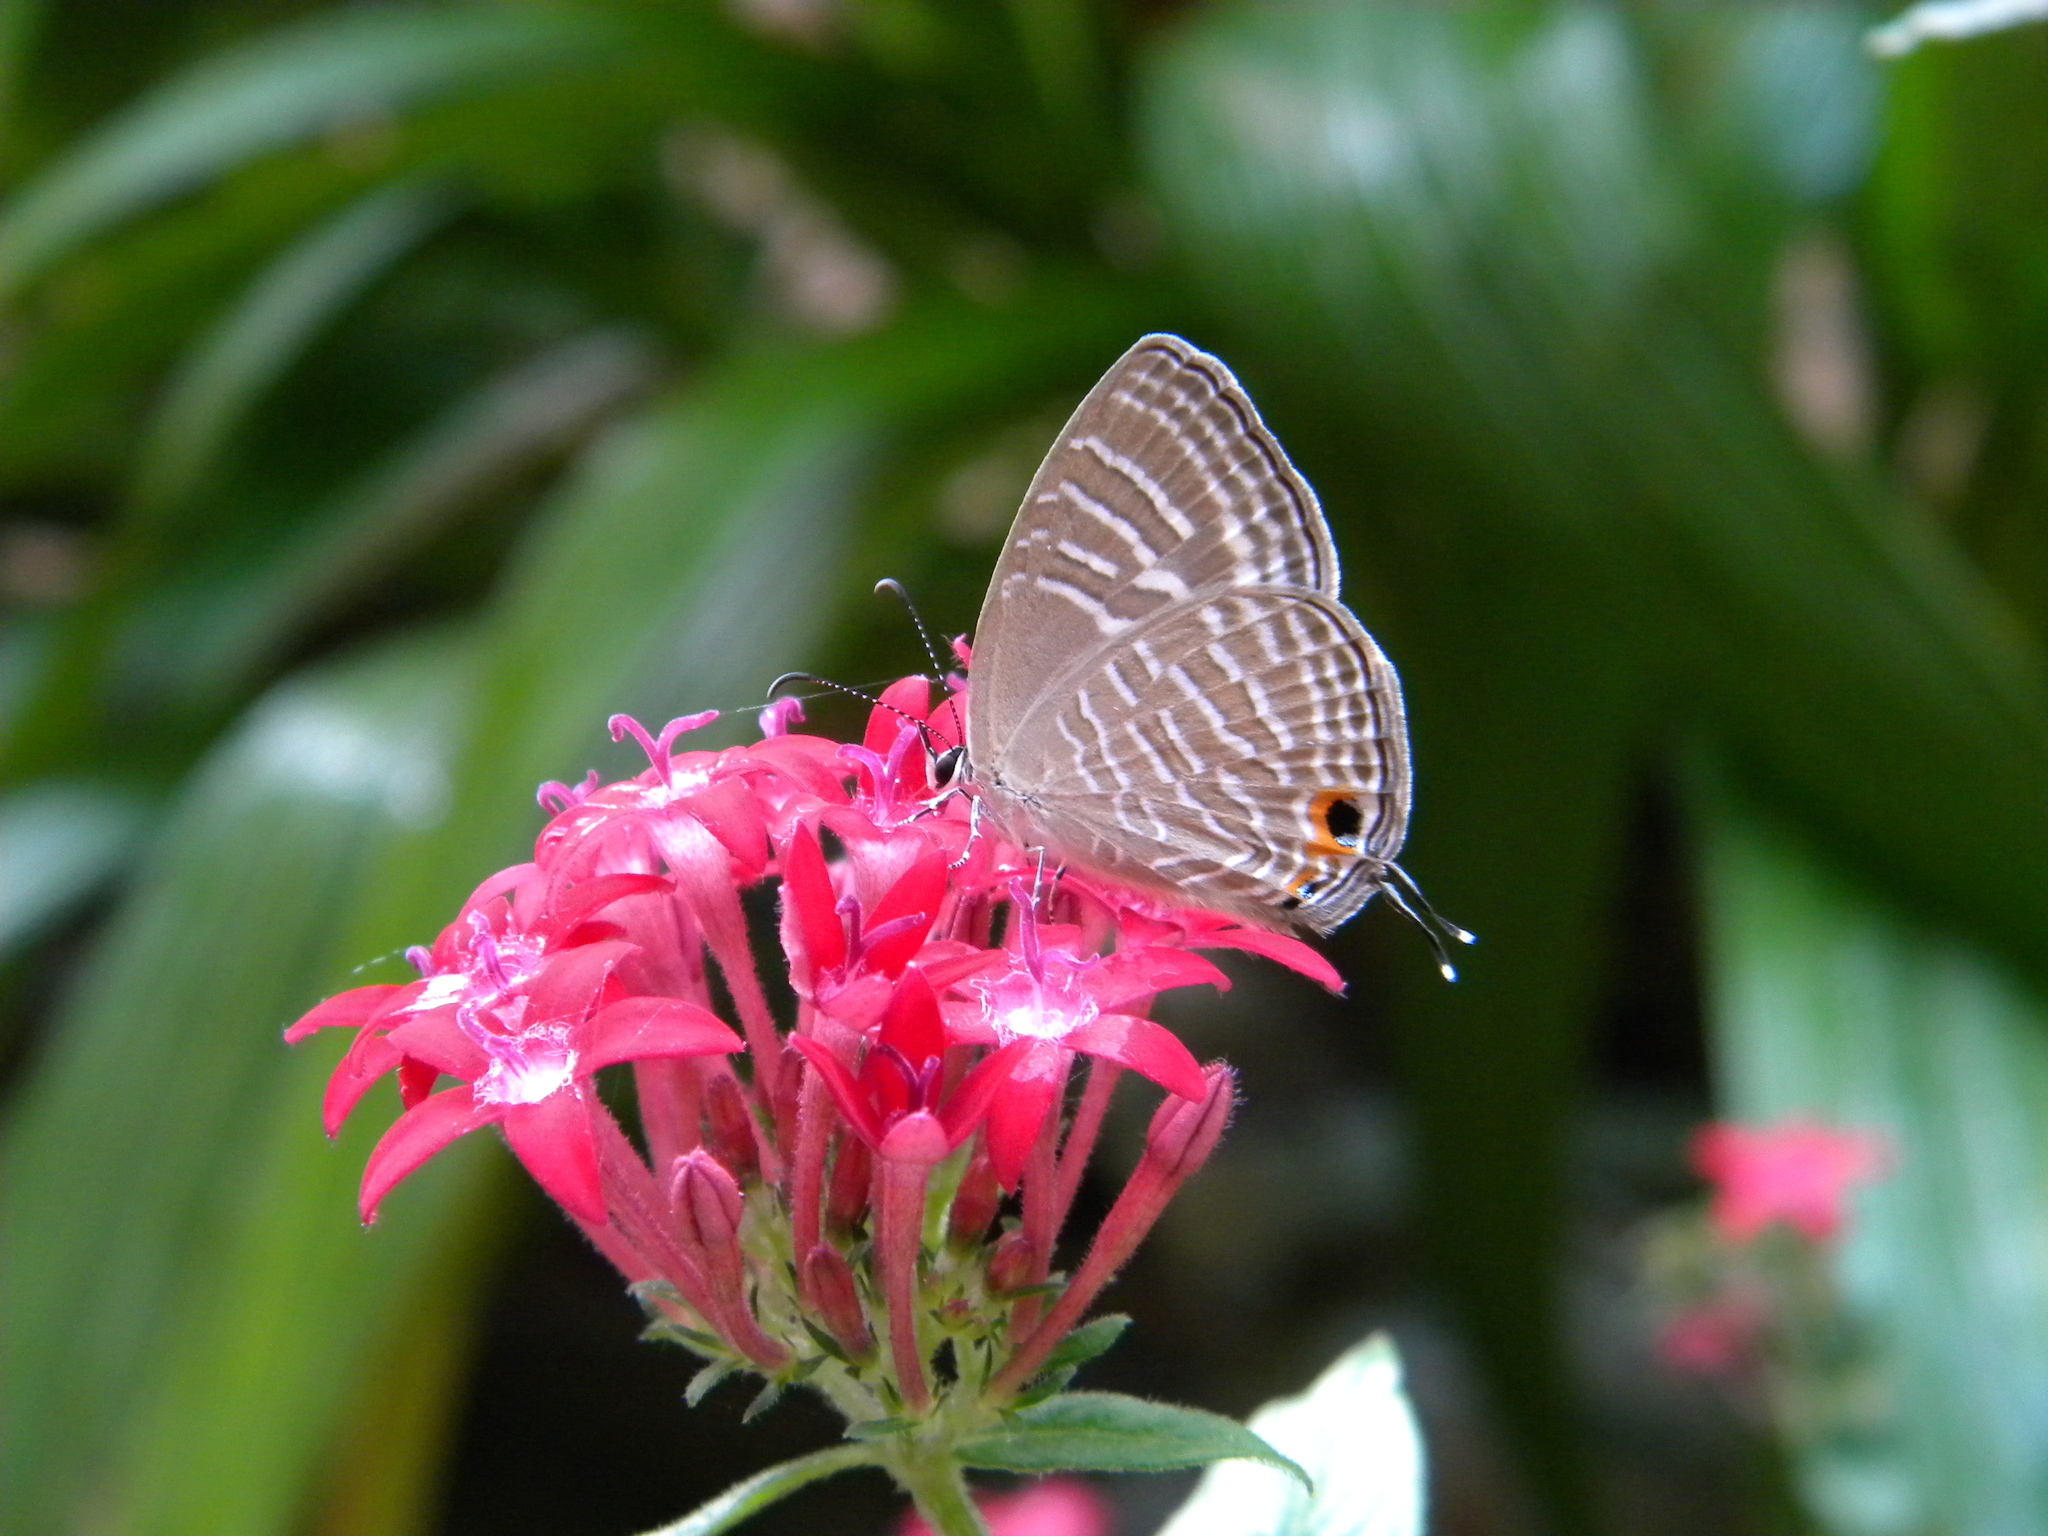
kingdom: Animalia
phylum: Arthropoda
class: Insecta
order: Lepidoptera
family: Lycaenidae
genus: Jamides
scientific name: Jamides celeno
